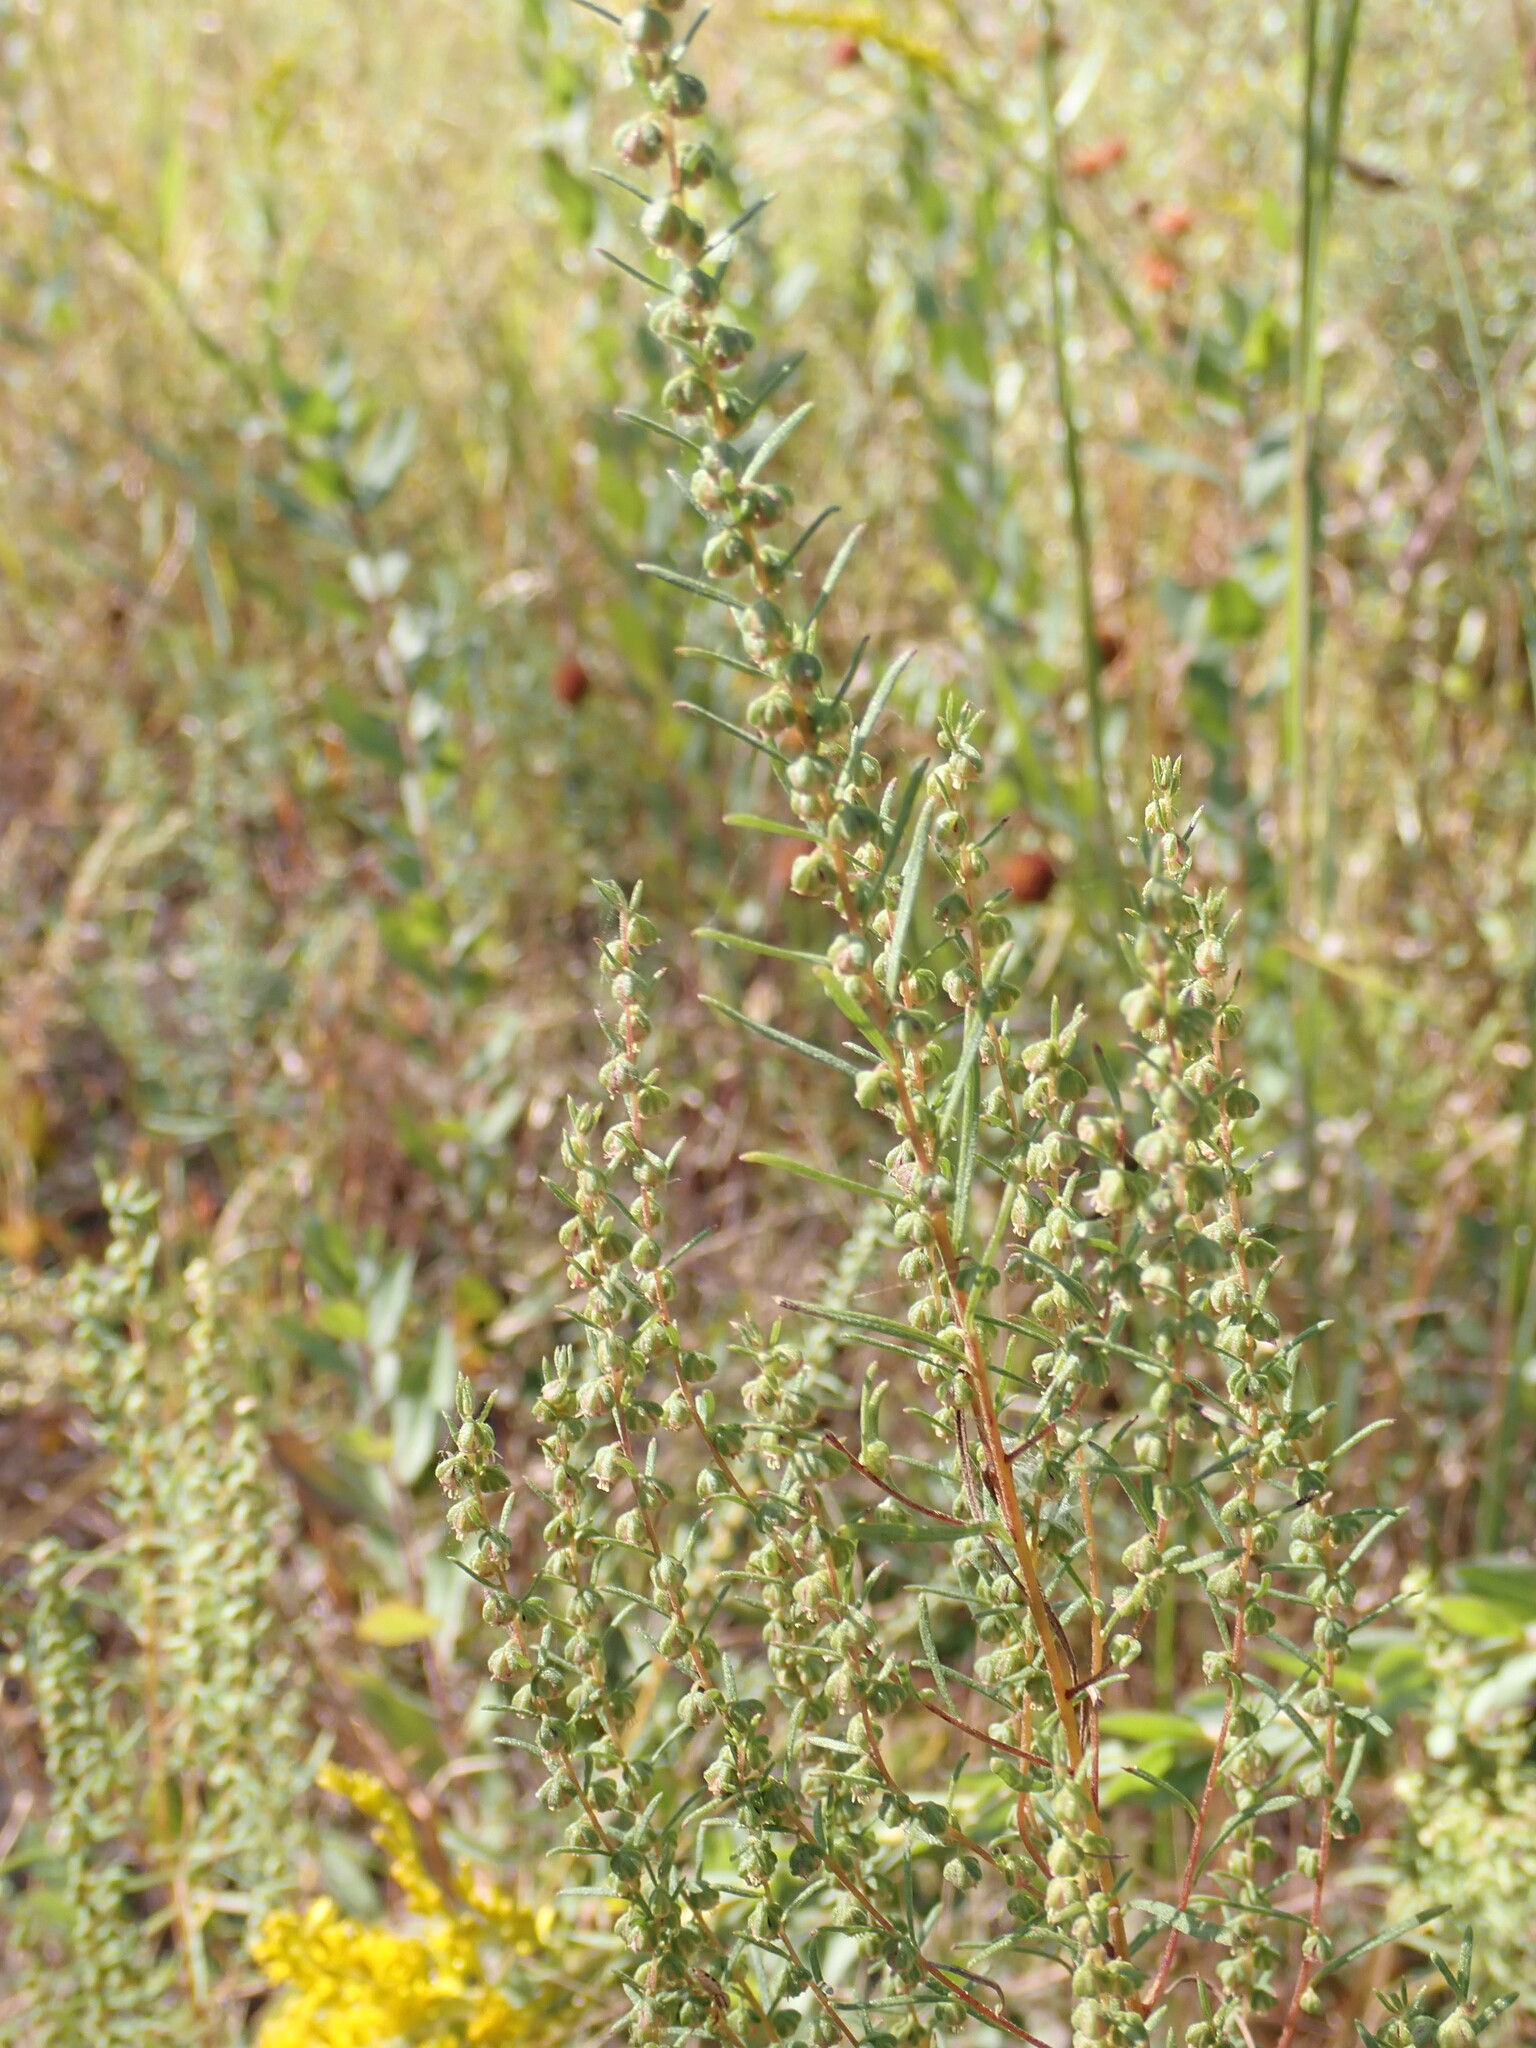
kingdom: Plantae
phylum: Tracheophyta
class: Magnoliopsida
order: Asterales
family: Asteraceae
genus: Iva
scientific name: Iva microcephala
